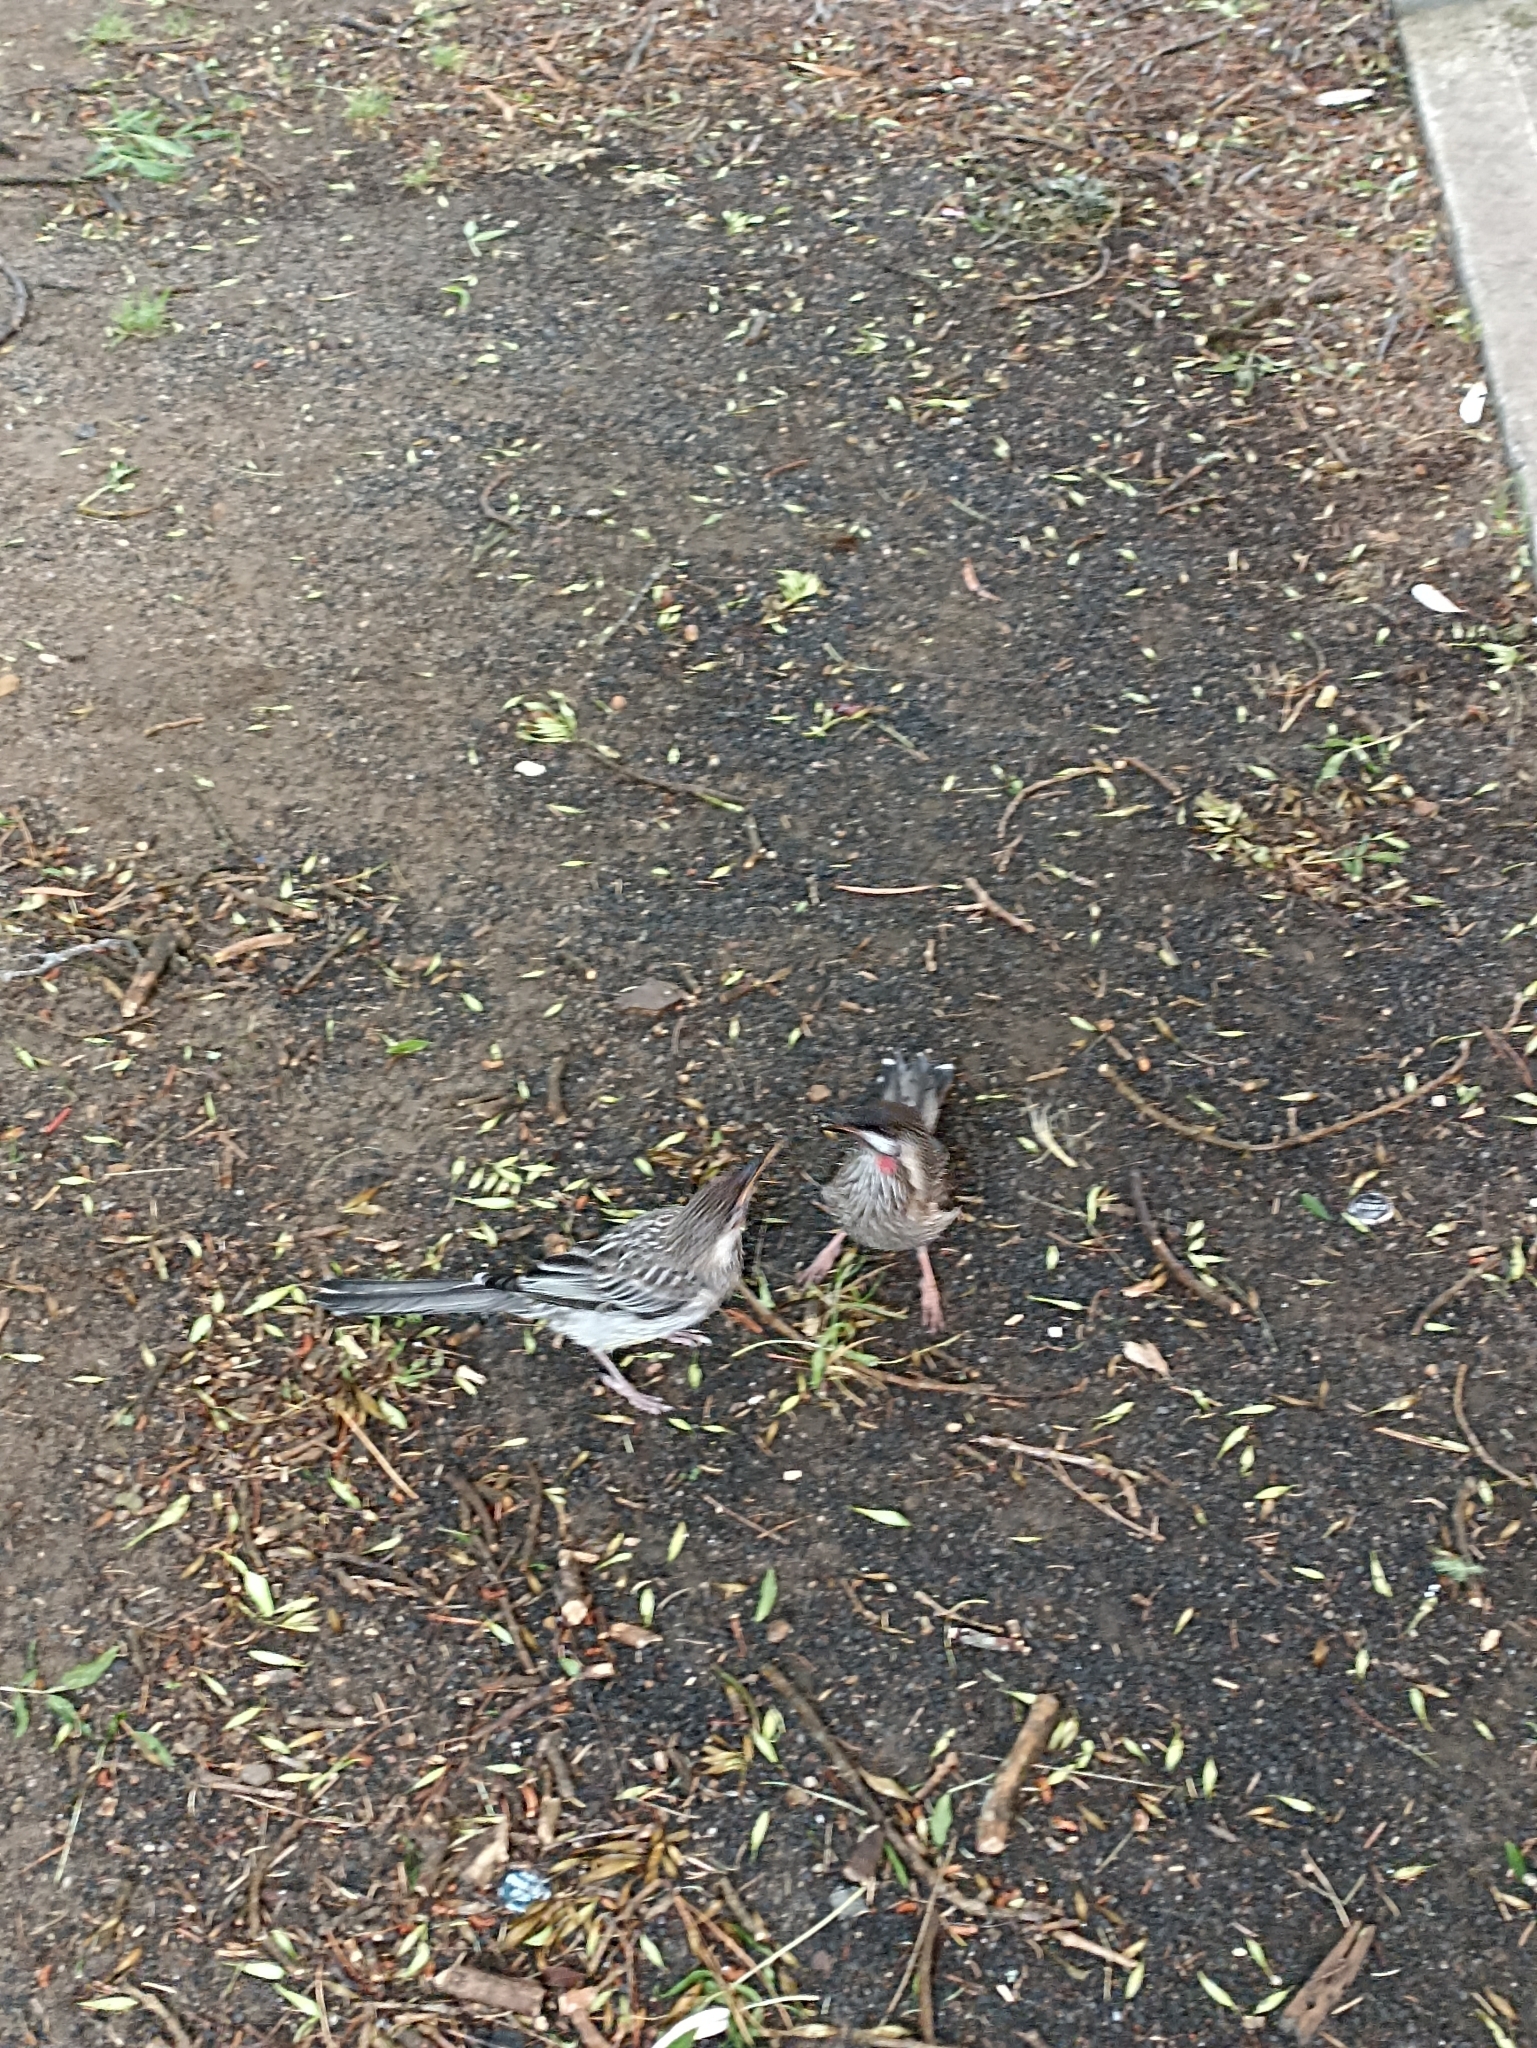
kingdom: Animalia
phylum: Chordata
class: Aves
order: Passeriformes
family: Meliphagidae
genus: Anthochaera
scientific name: Anthochaera carunculata
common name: Red wattlebird
